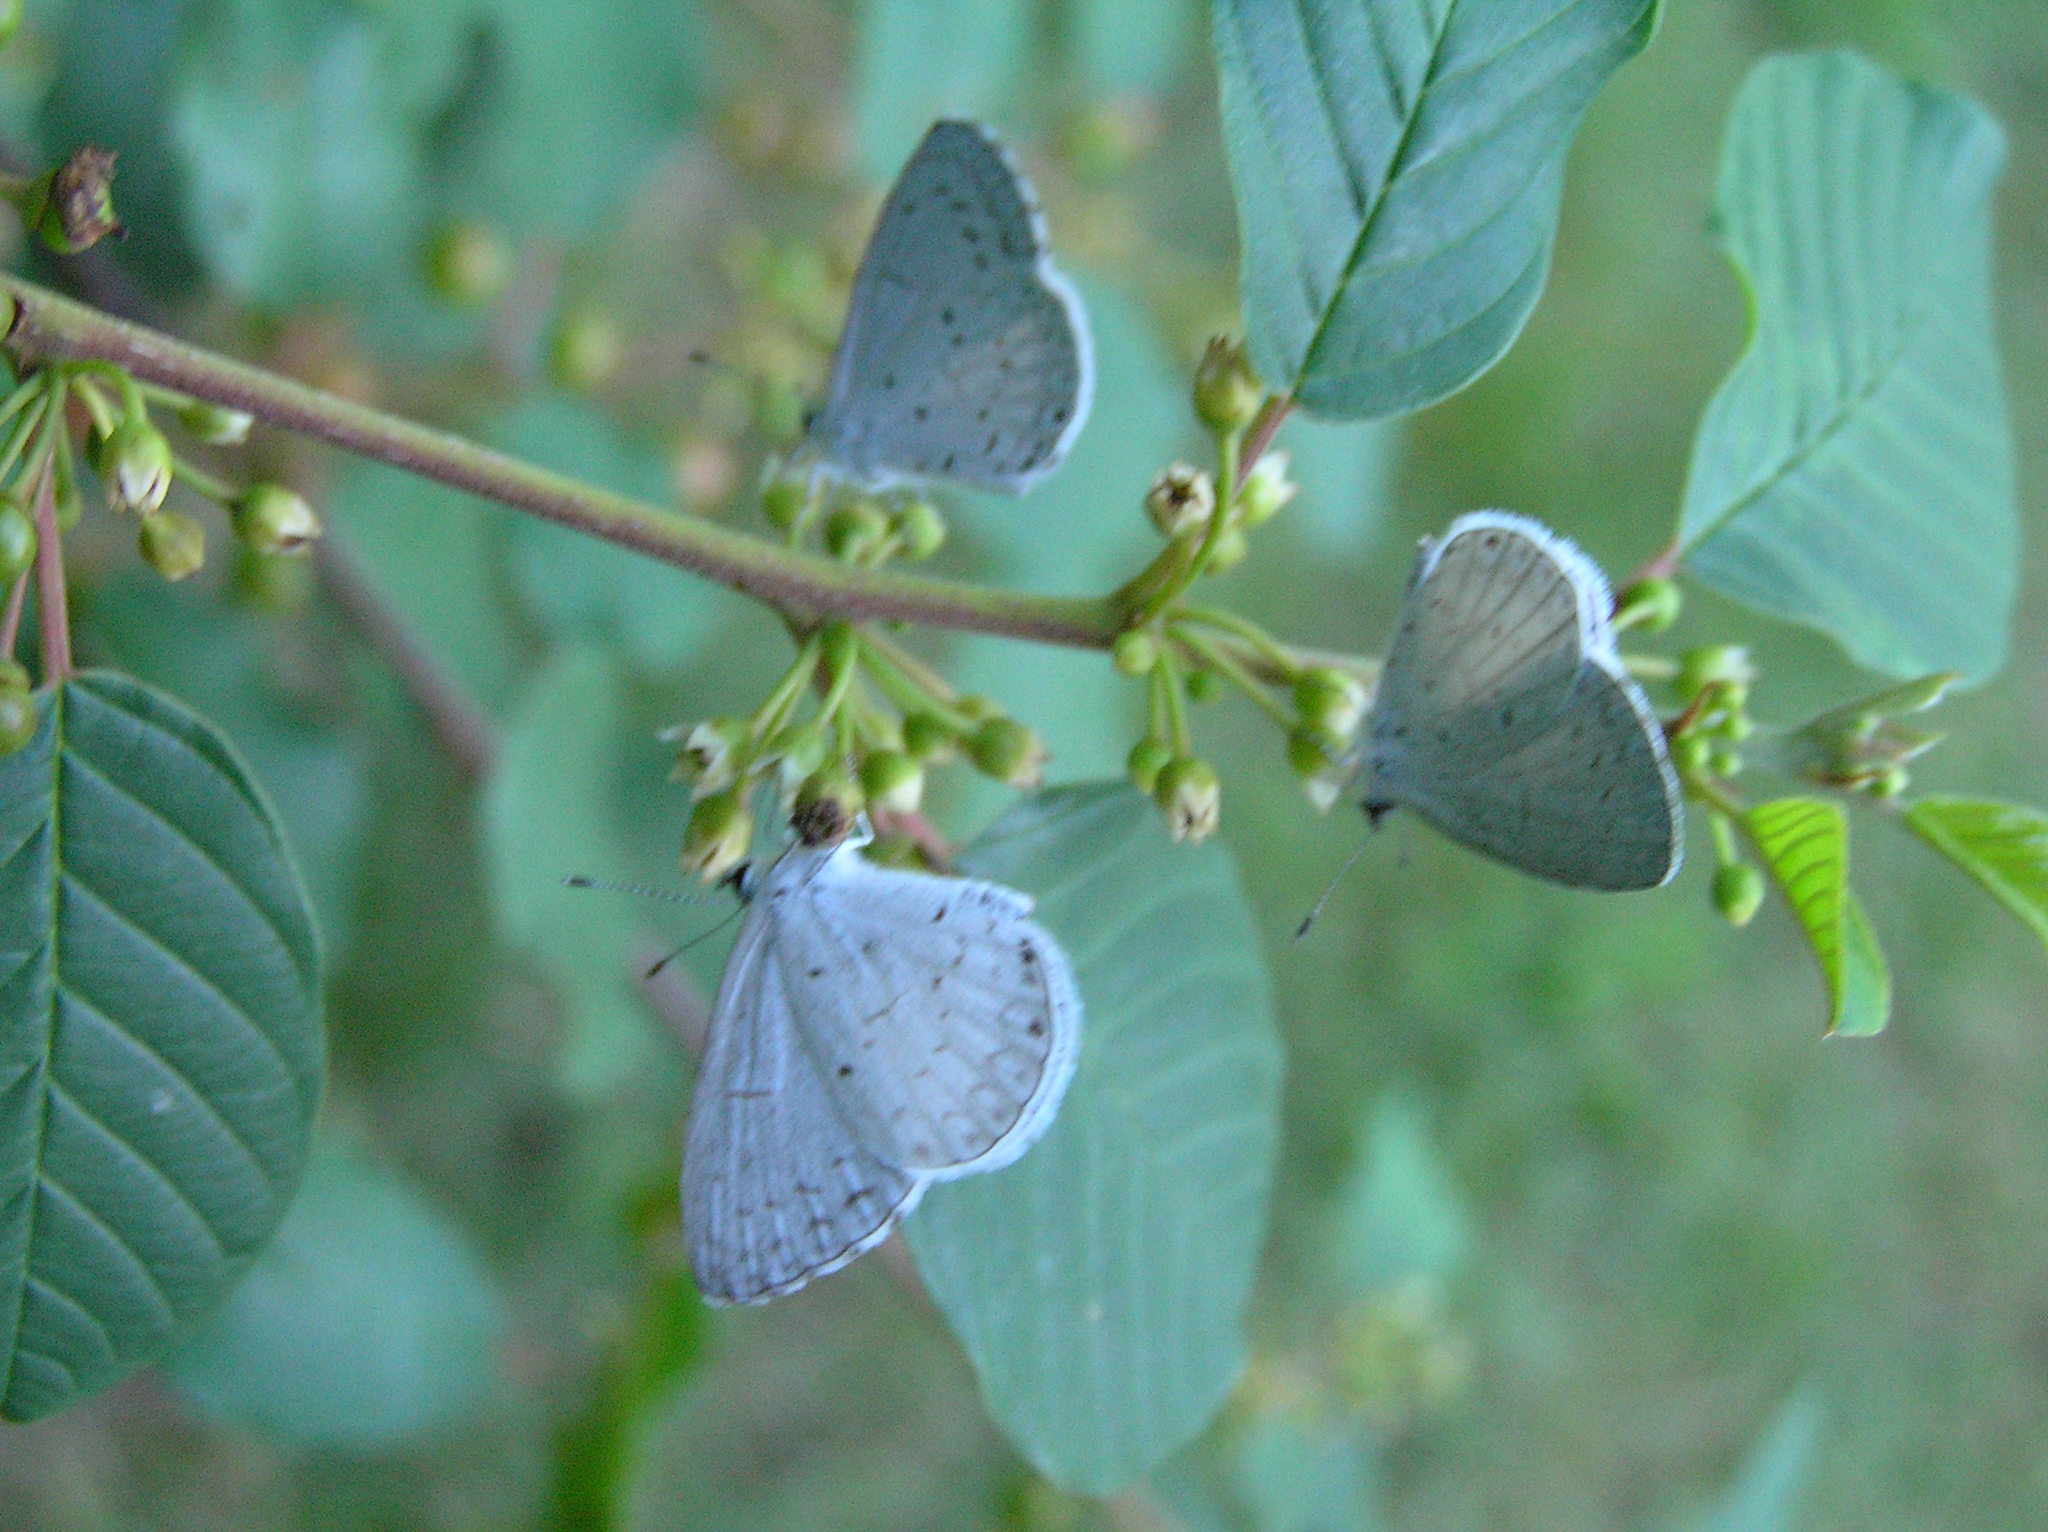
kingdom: Animalia
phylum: Arthropoda
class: Insecta
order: Lepidoptera
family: Lycaenidae
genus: Cyaniris
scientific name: Cyaniris neglecta
